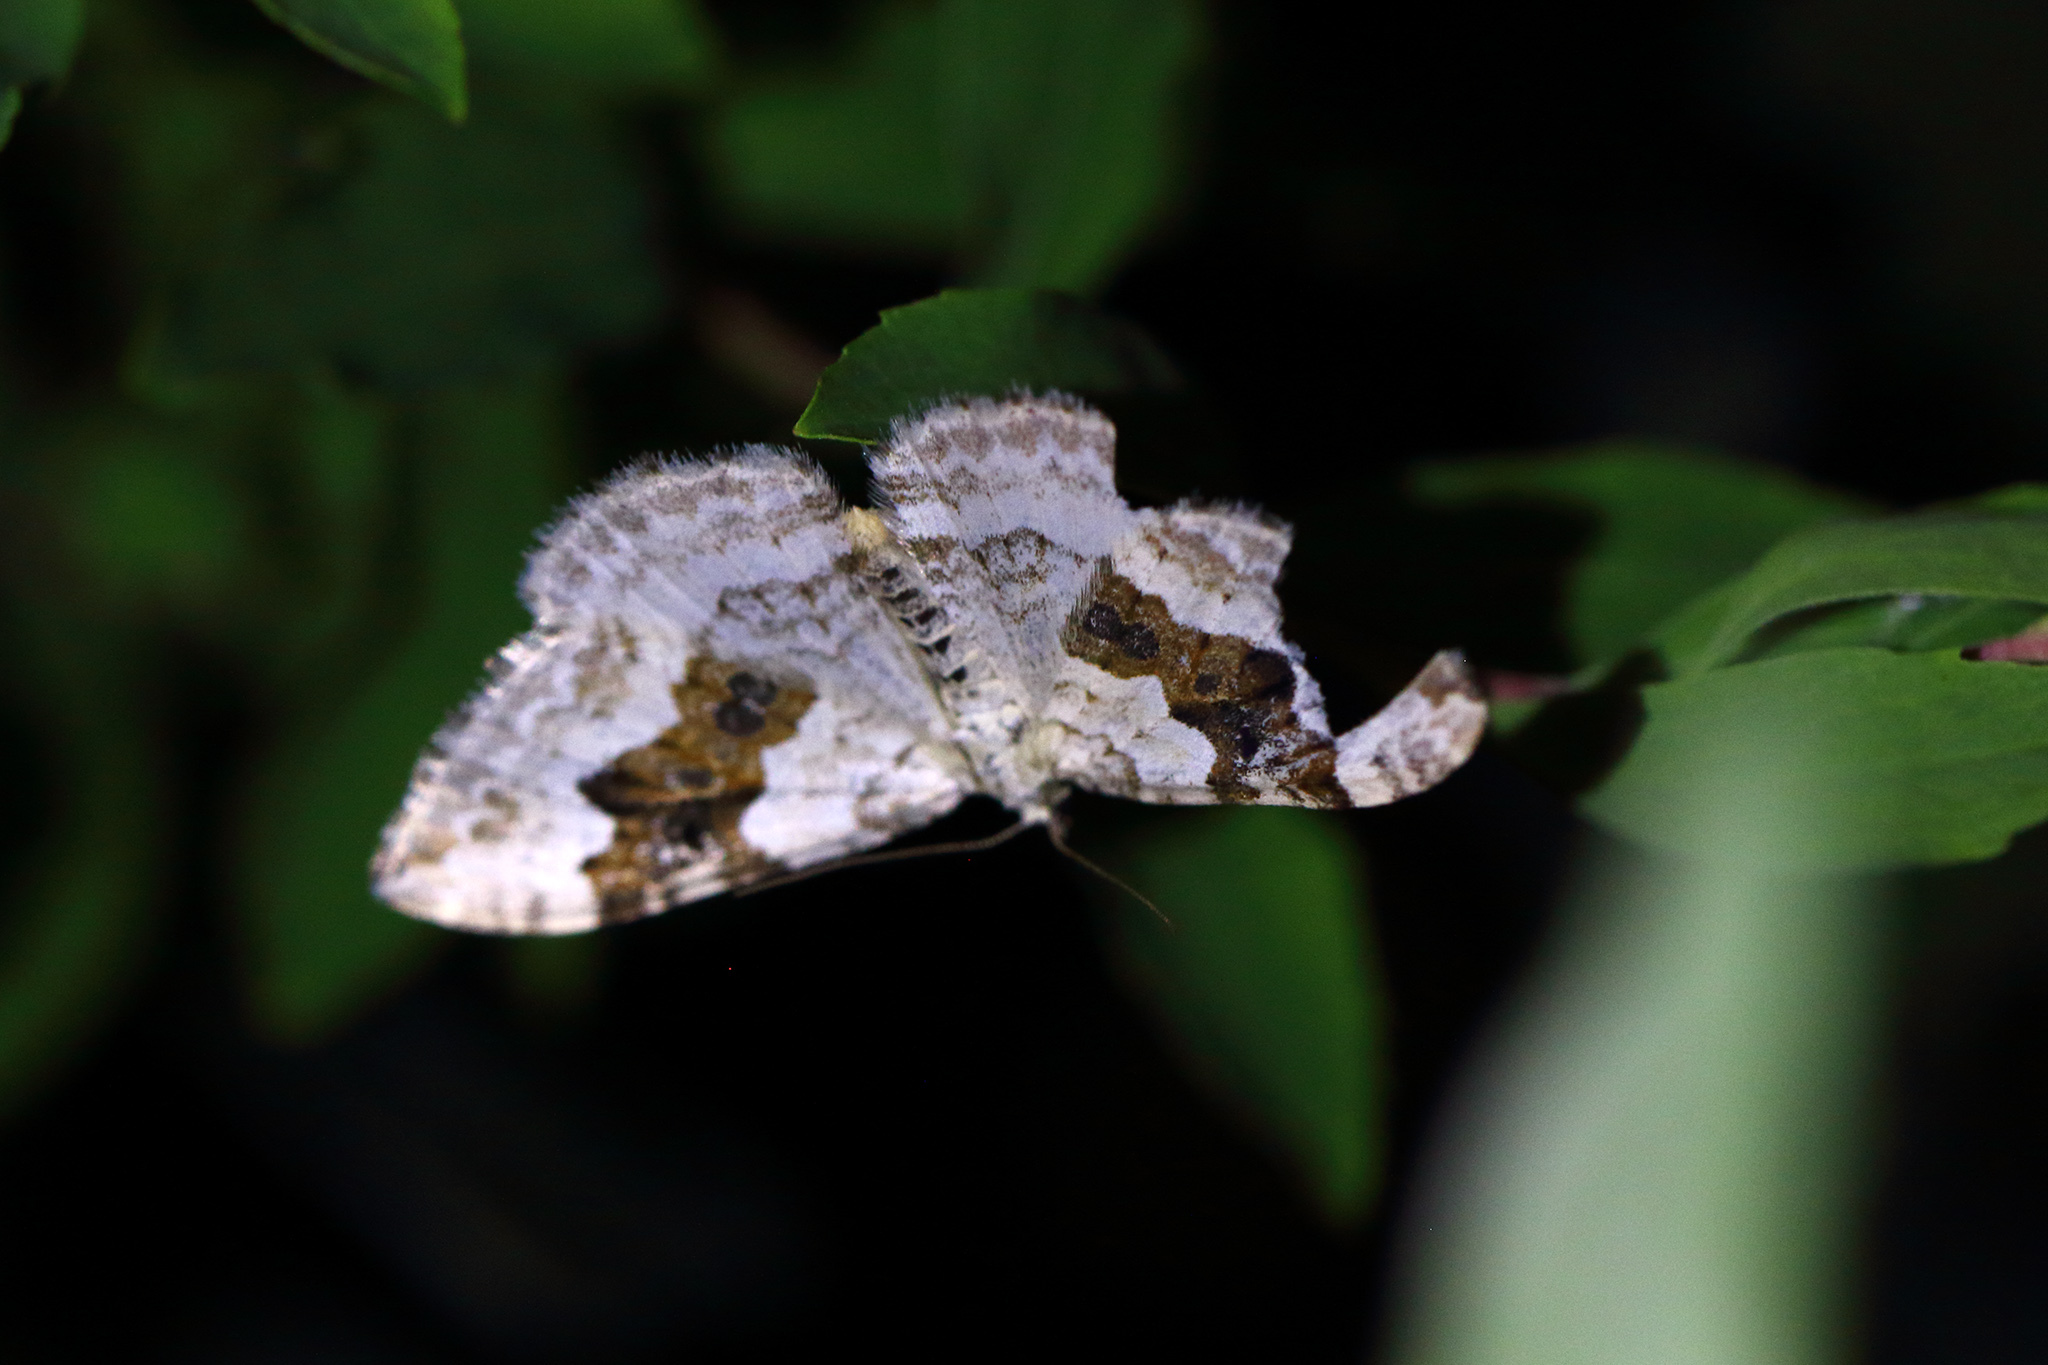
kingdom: Animalia
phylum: Arthropoda
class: Insecta
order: Lepidoptera
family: Geometridae
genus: Xanthorhoe
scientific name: Xanthorhoe montanata
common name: Silver-ground carpet
